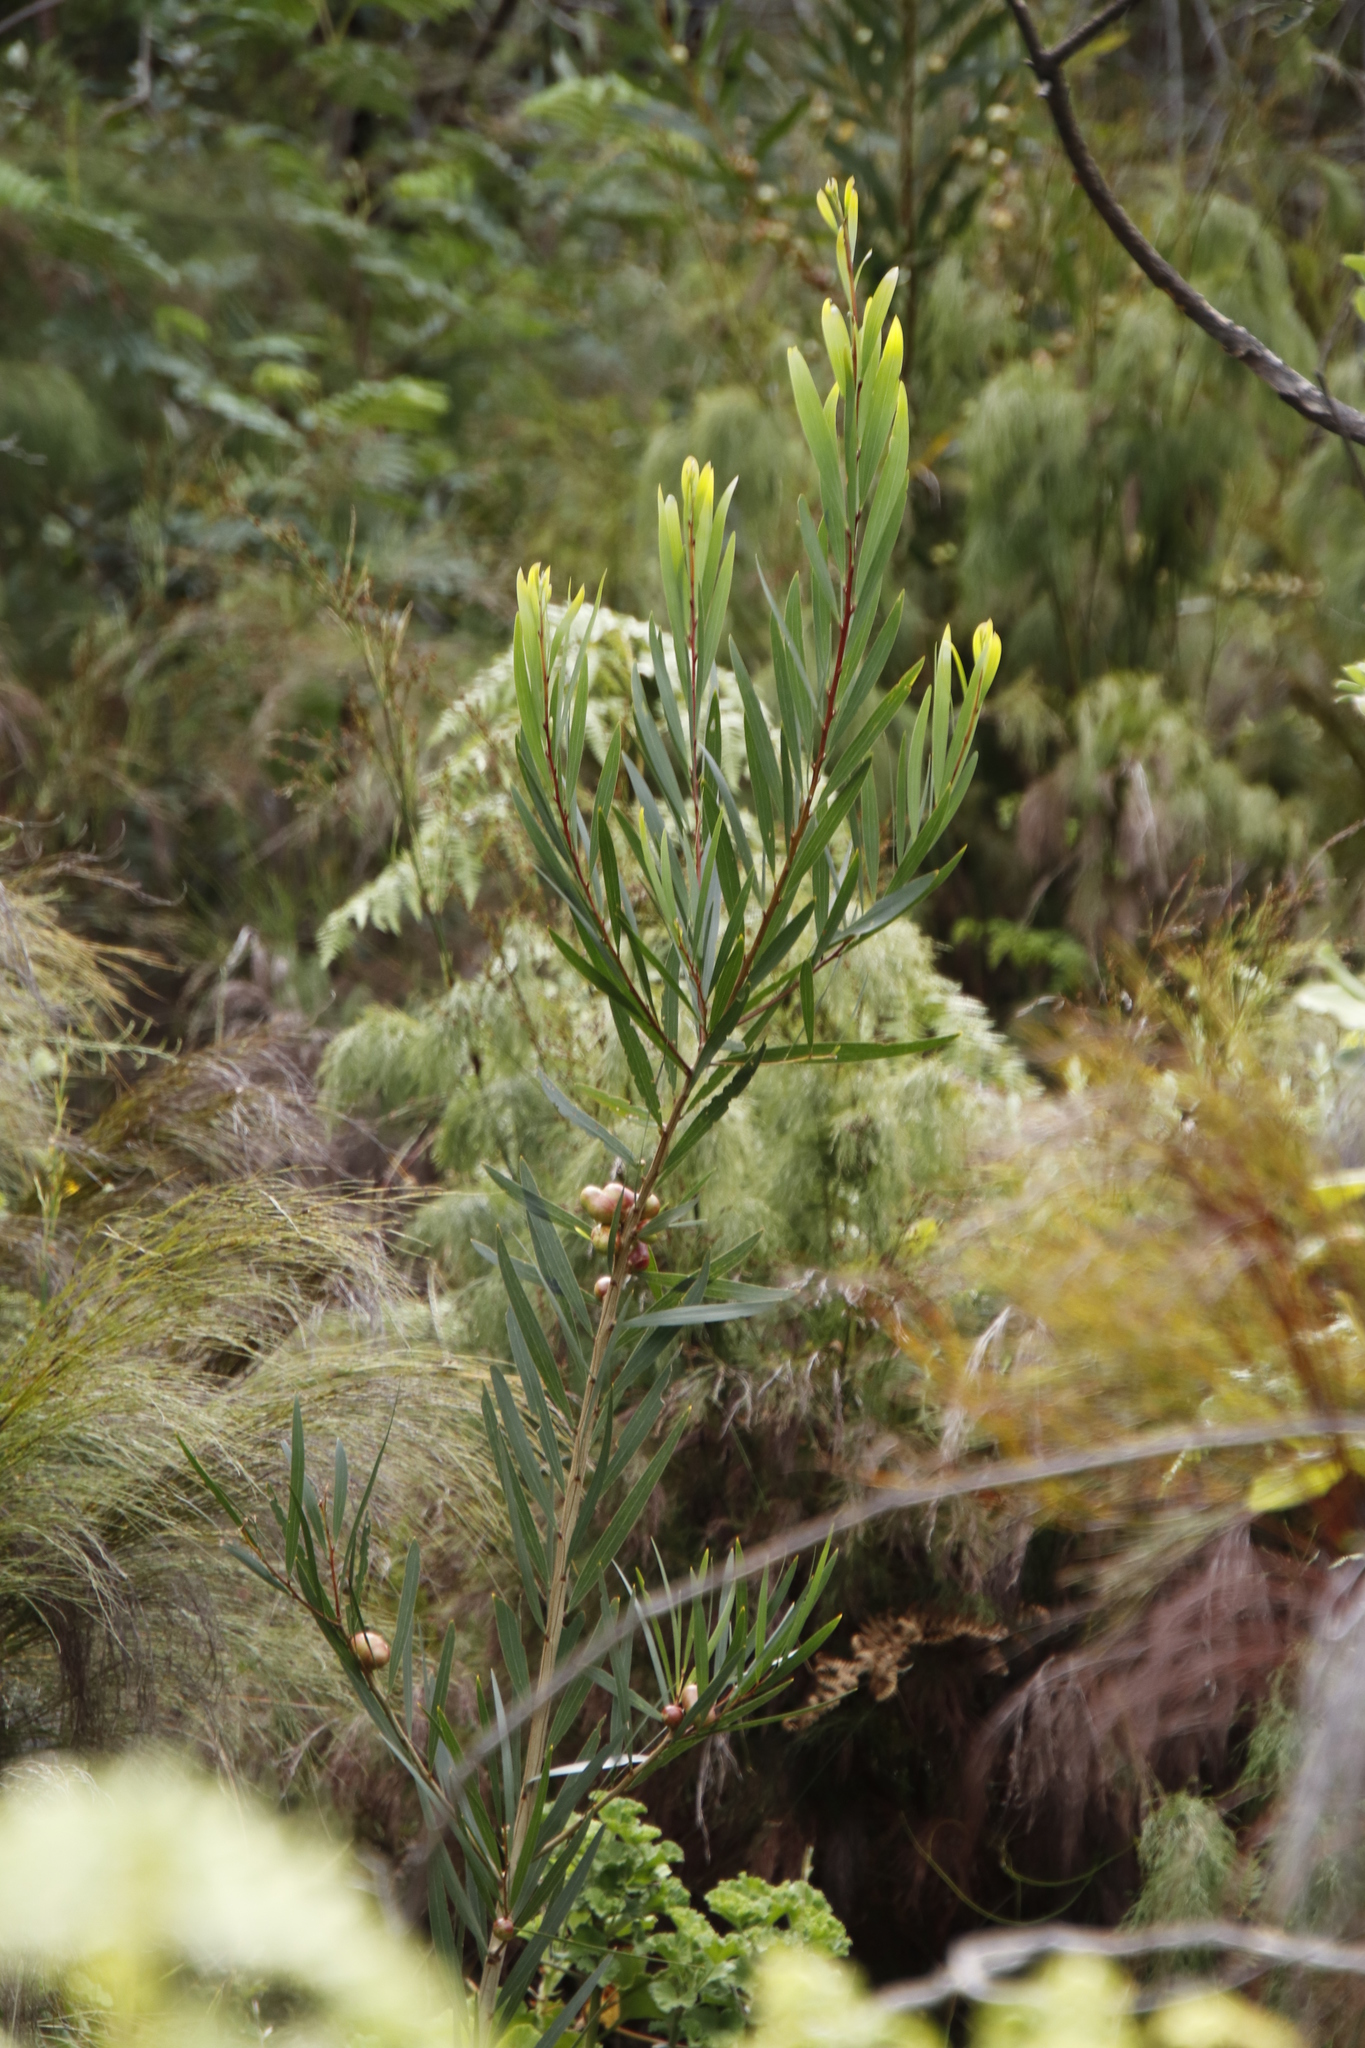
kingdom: Plantae
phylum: Tracheophyta
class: Magnoliopsida
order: Fabales
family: Fabaceae
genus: Acacia
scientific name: Acacia longifolia
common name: Sydney golden wattle
